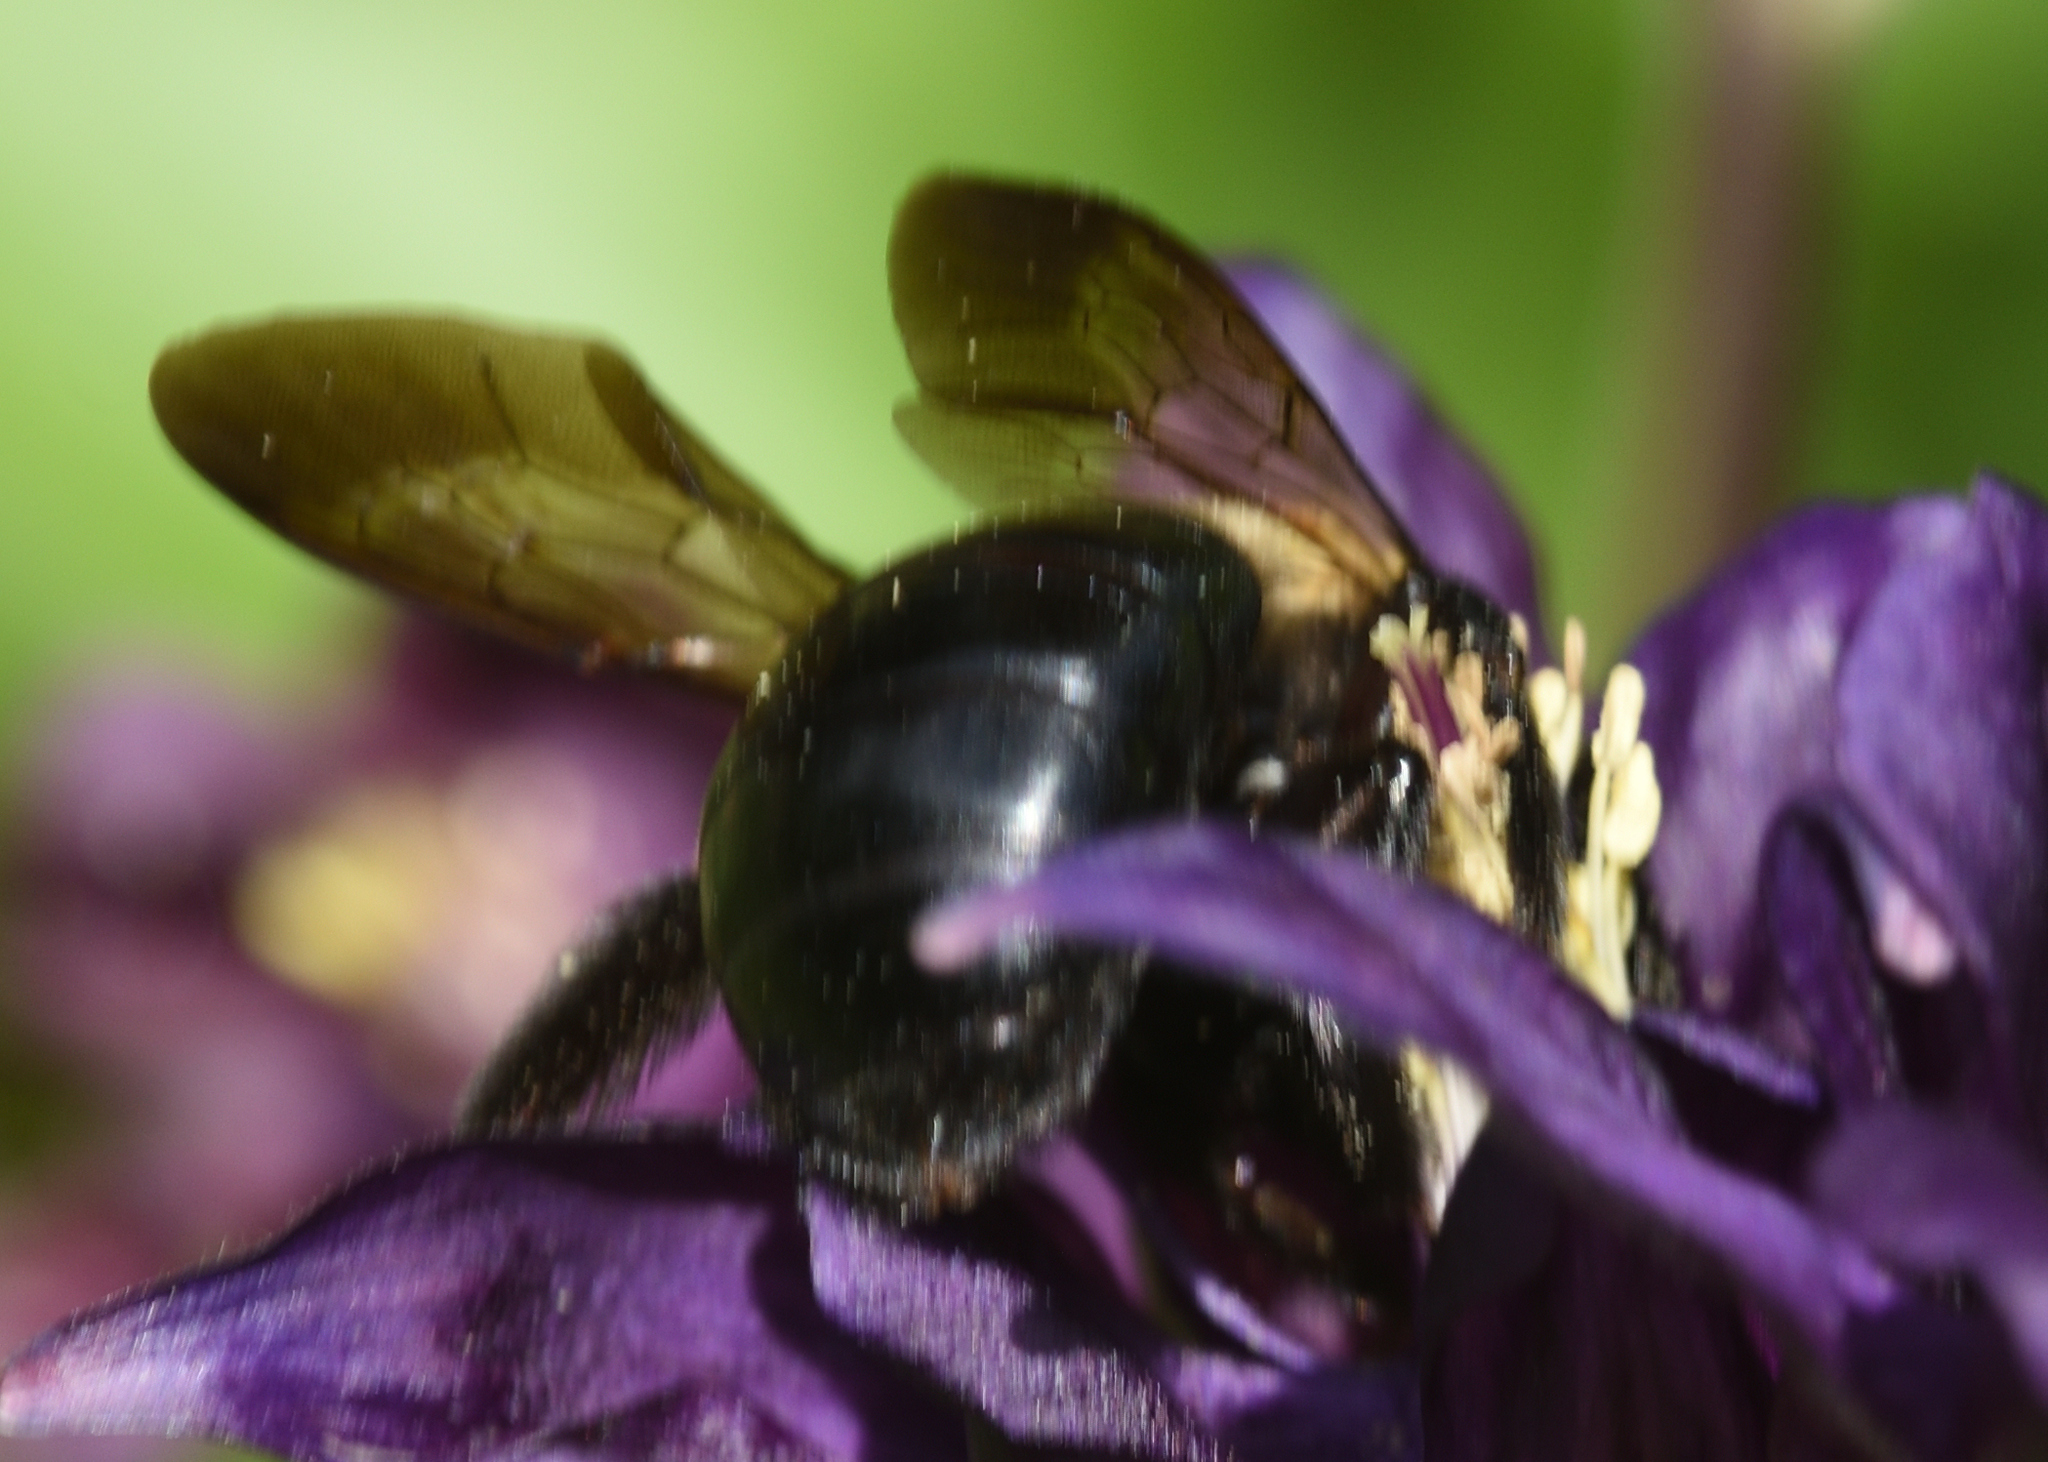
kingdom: Animalia
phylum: Arthropoda
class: Insecta
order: Hymenoptera
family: Apidae
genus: Xylocopa
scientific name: Xylocopa virginica
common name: Carpenter bee
